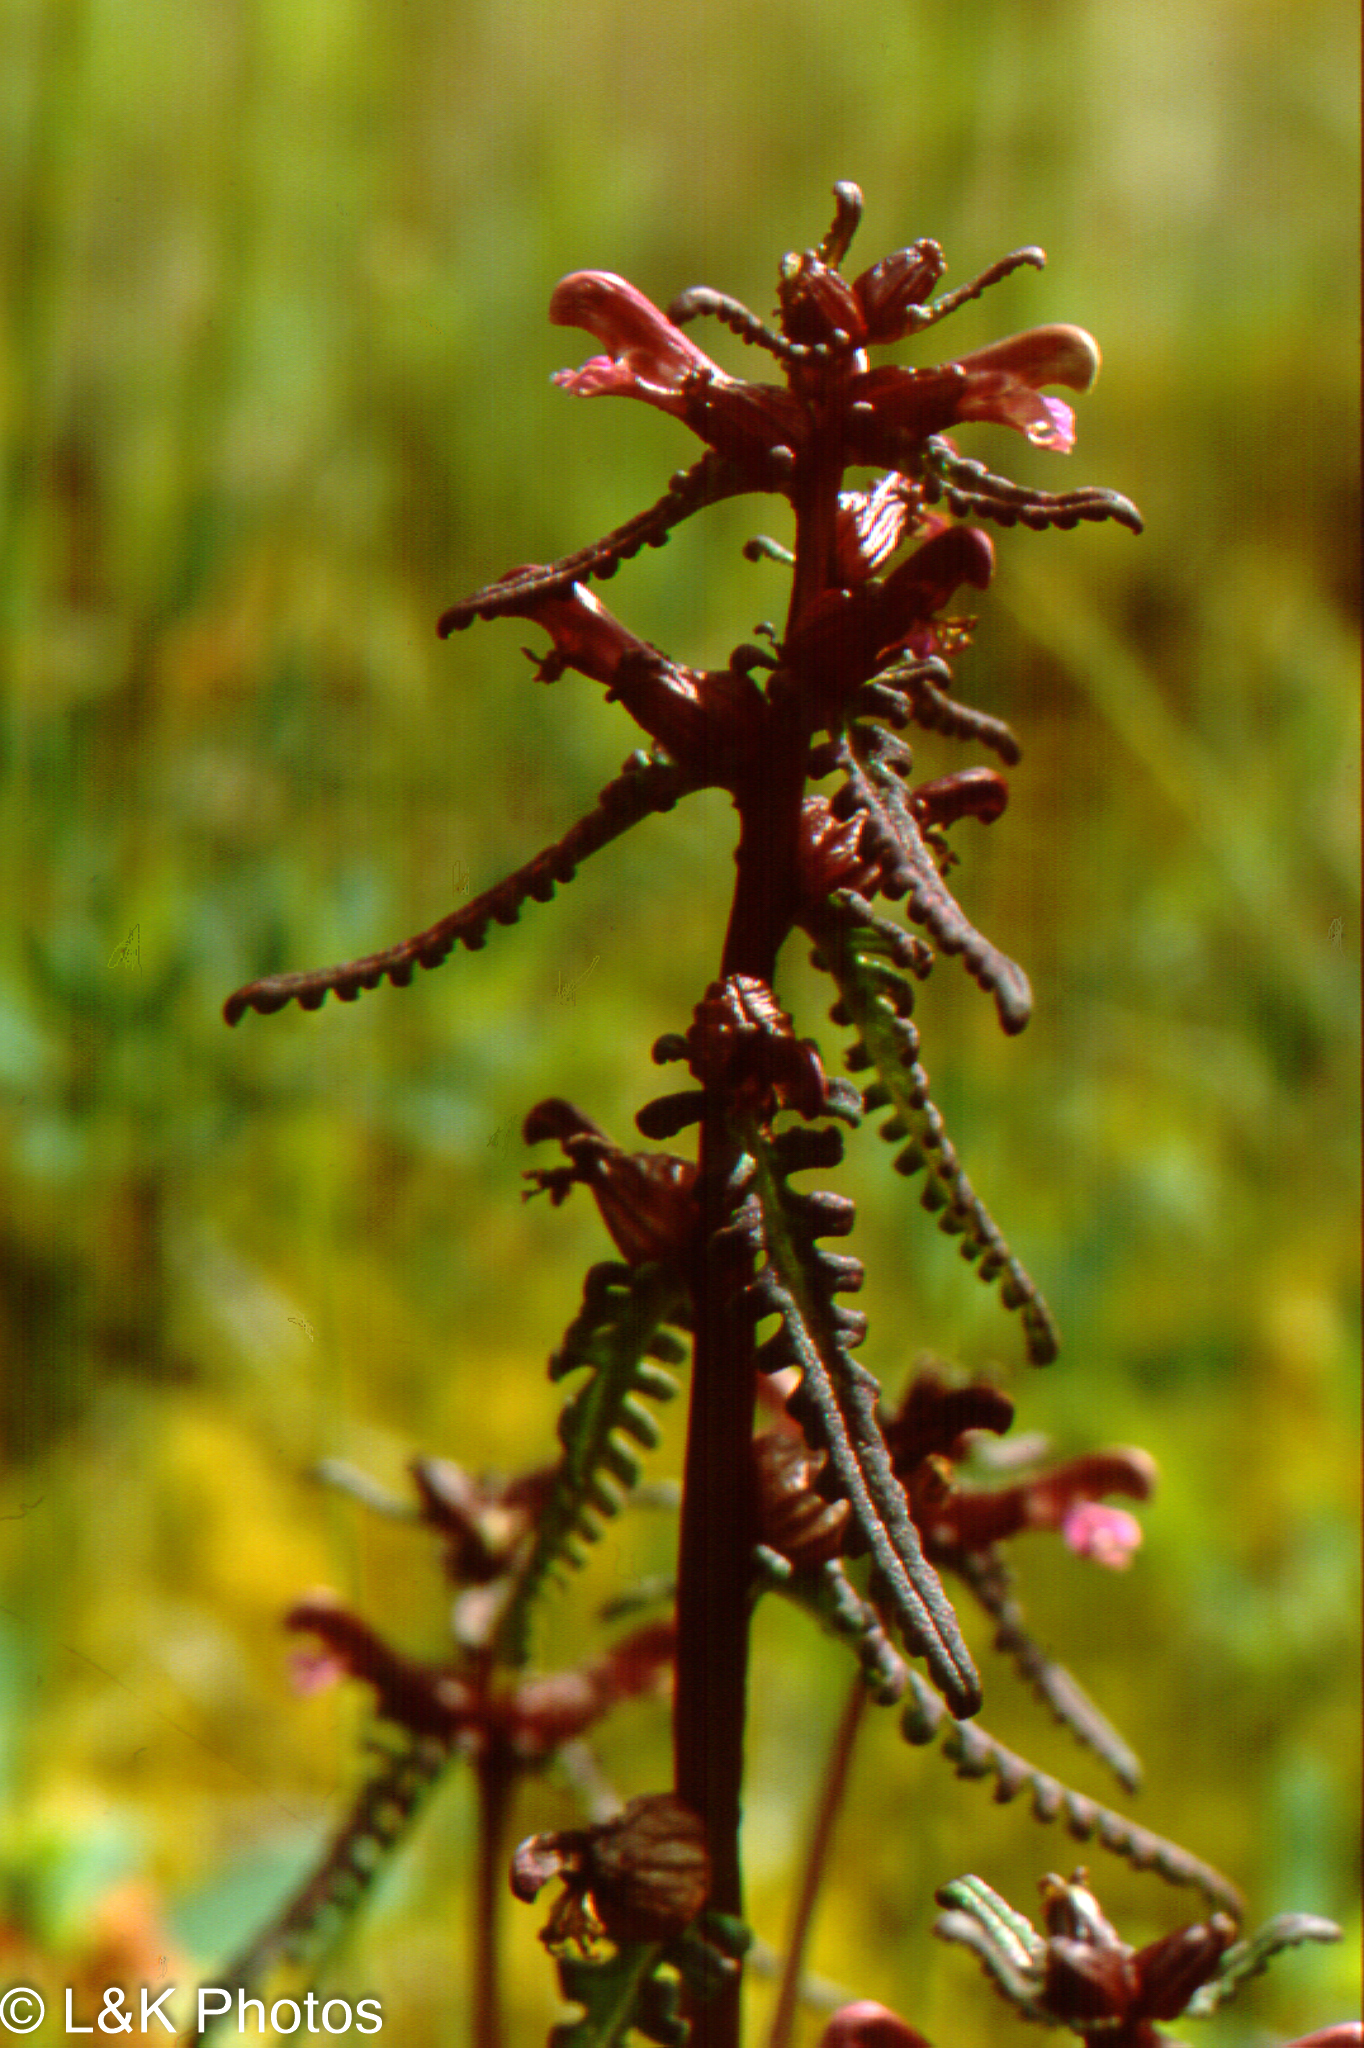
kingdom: Plantae
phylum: Tracheophyta
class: Magnoliopsida
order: Lamiales
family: Orobanchaceae
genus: Pedicularis
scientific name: Pedicularis parviflora
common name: Muskeg lousewort
